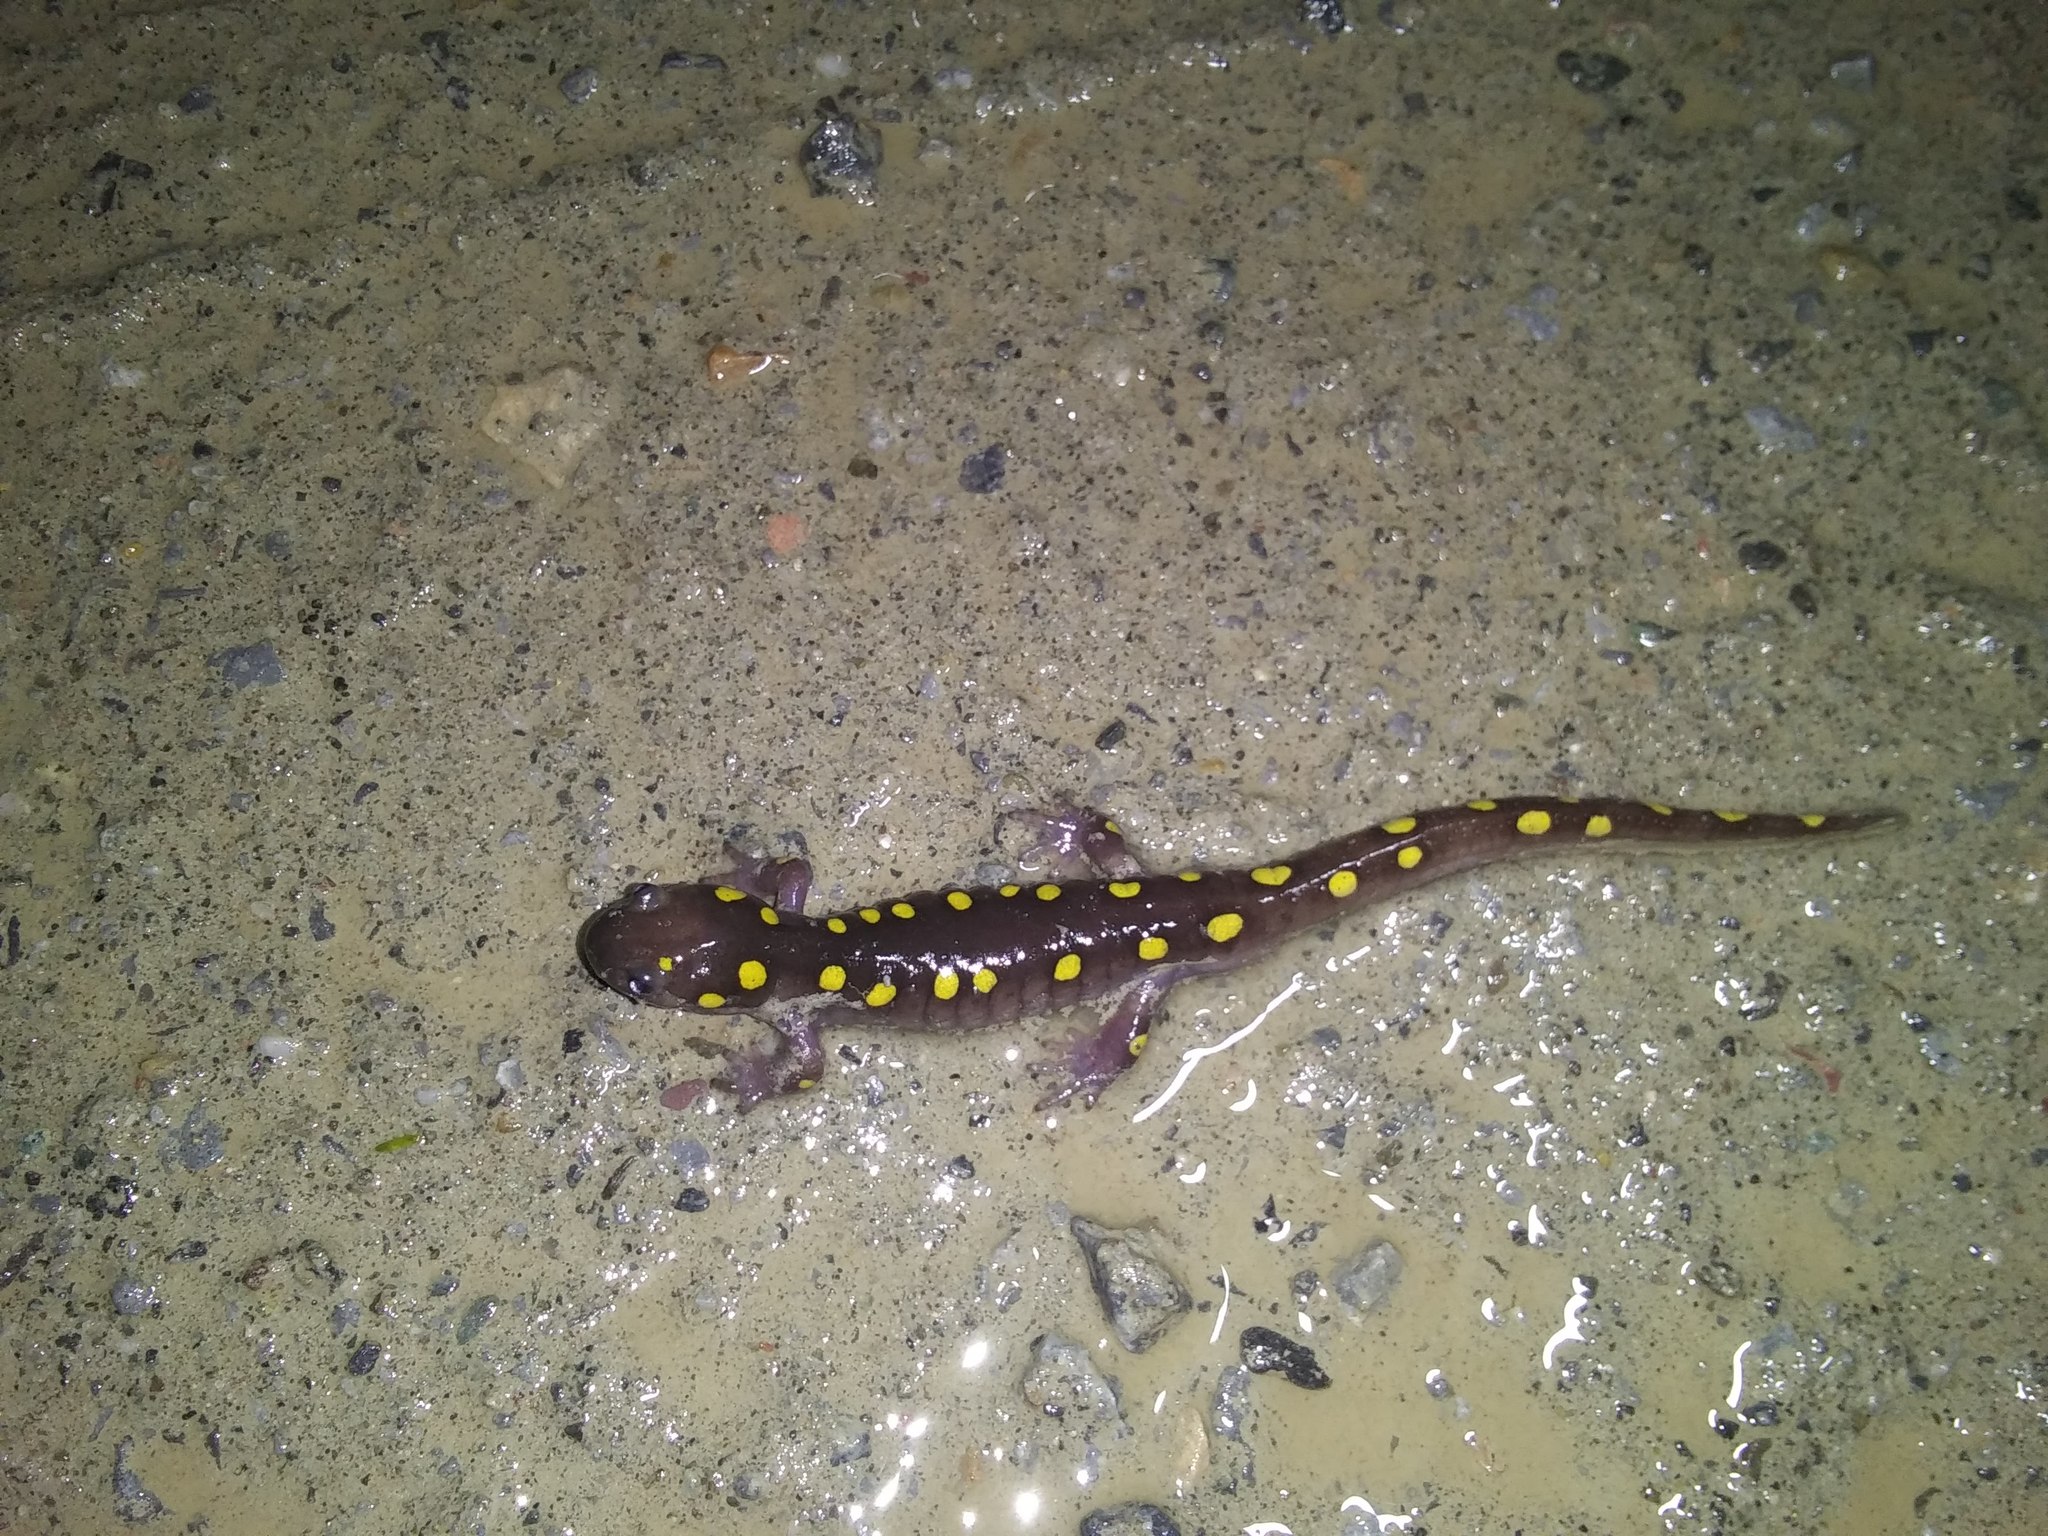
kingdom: Animalia
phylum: Chordata
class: Amphibia
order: Caudata
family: Ambystomatidae
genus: Ambystoma
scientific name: Ambystoma maculatum
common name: Spotted salamander
